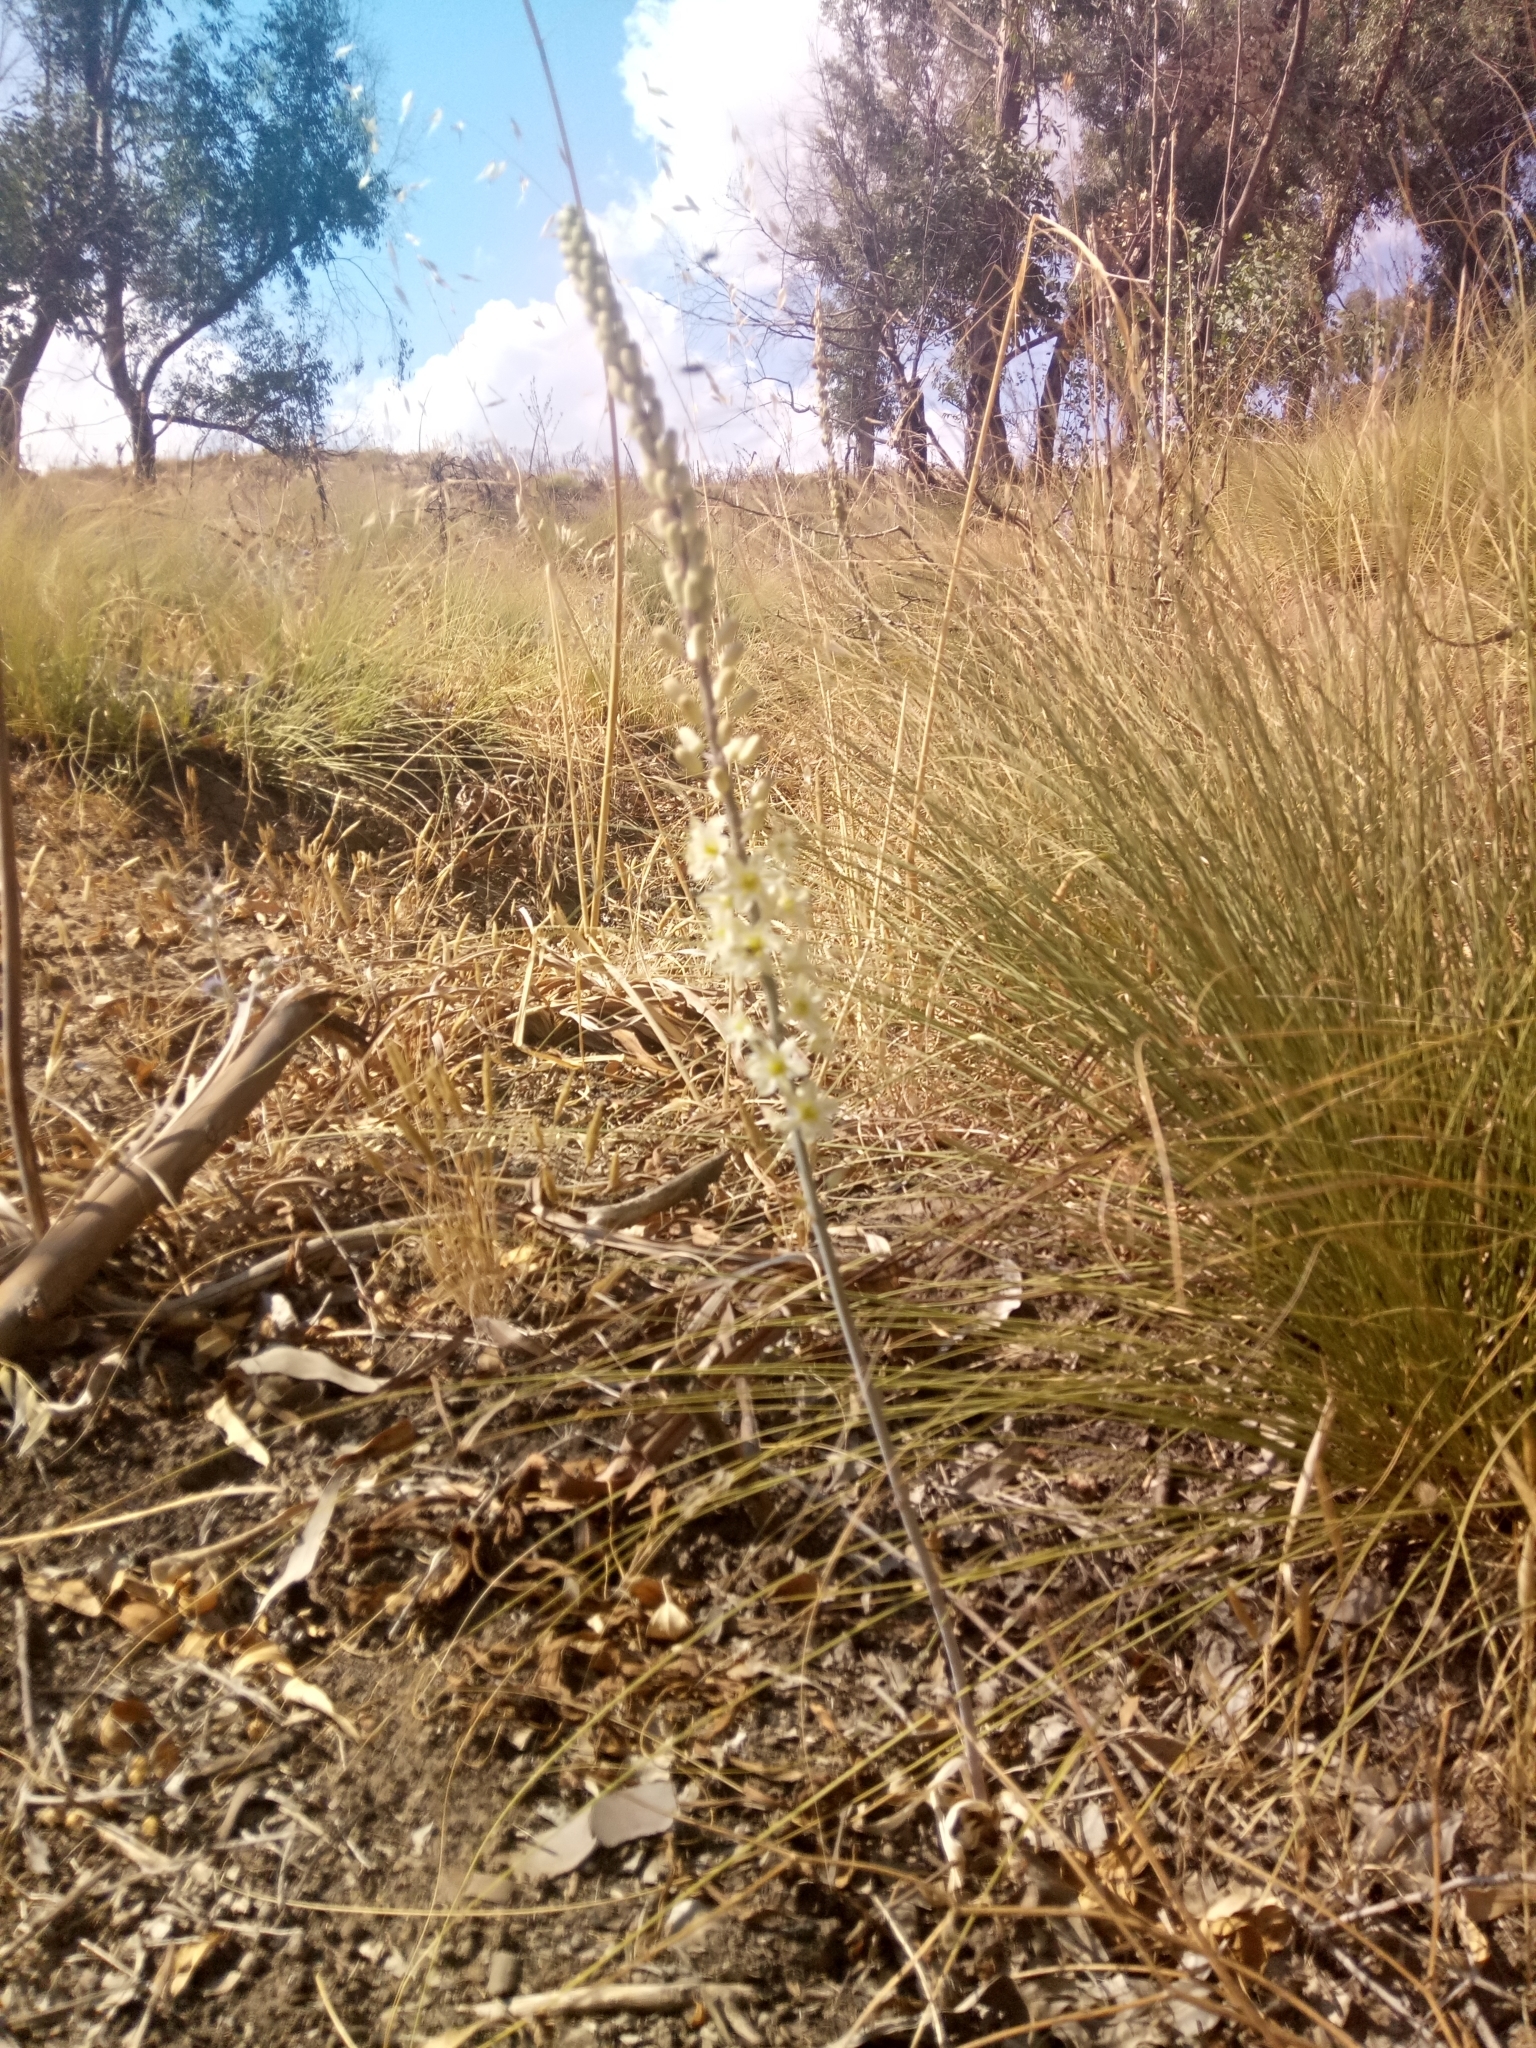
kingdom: Plantae
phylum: Tracheophyta
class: Liliopsida
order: Asparagales
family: Asparagaceae
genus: Drimia
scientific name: Drimia anthericoides
